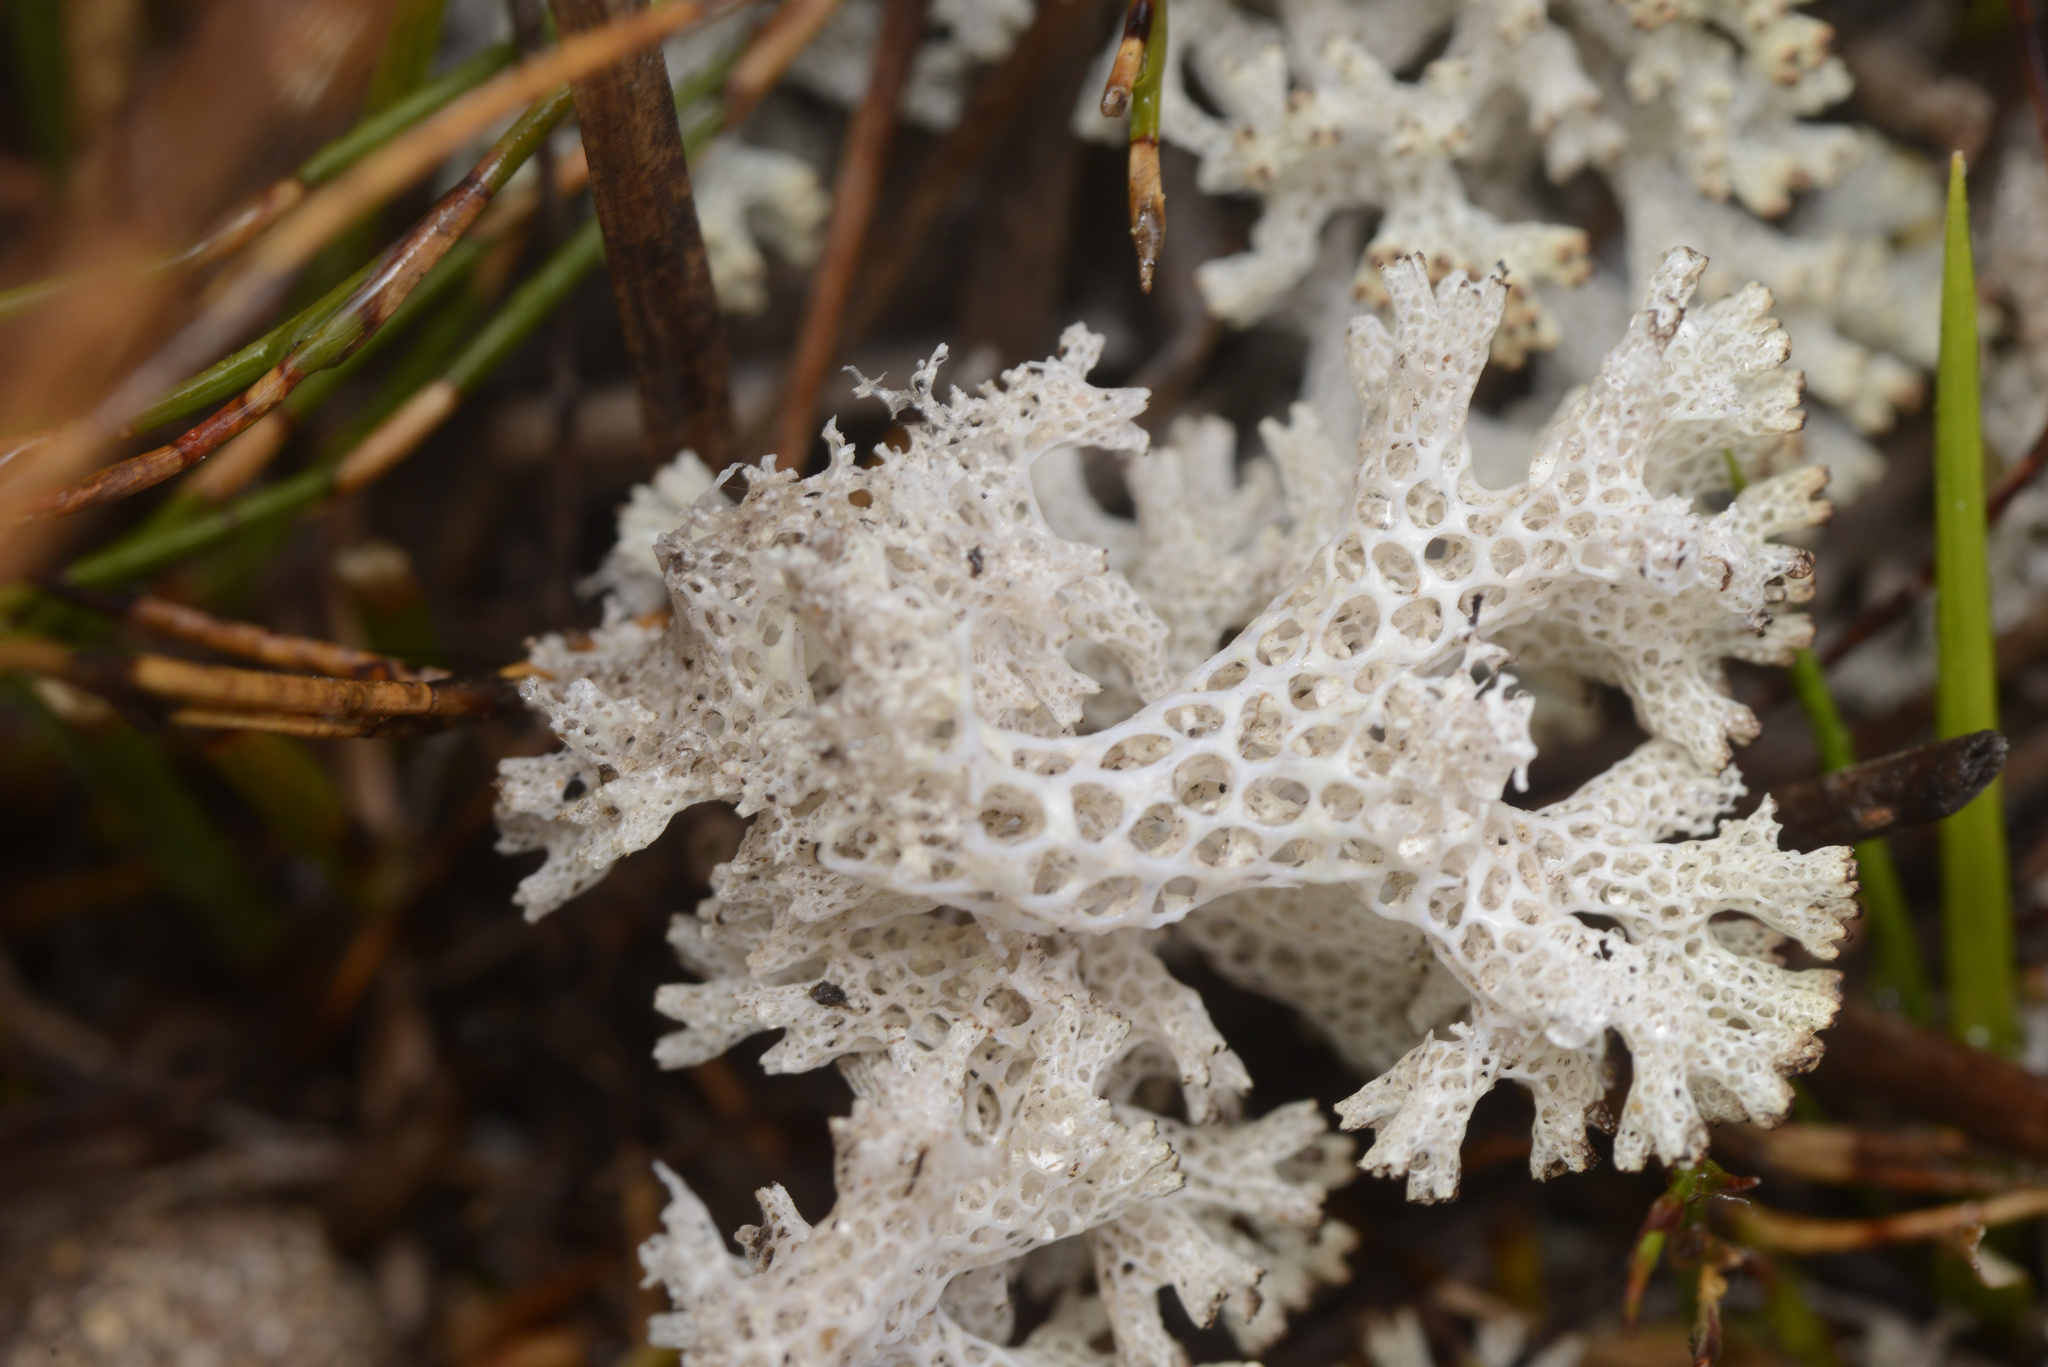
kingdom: Fungi
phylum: Ascomycota
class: Lecanoromycetes
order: Lecanorales
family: Cladoniaceae
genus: Pulchrocladia
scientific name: Pulchrocladia retipora
